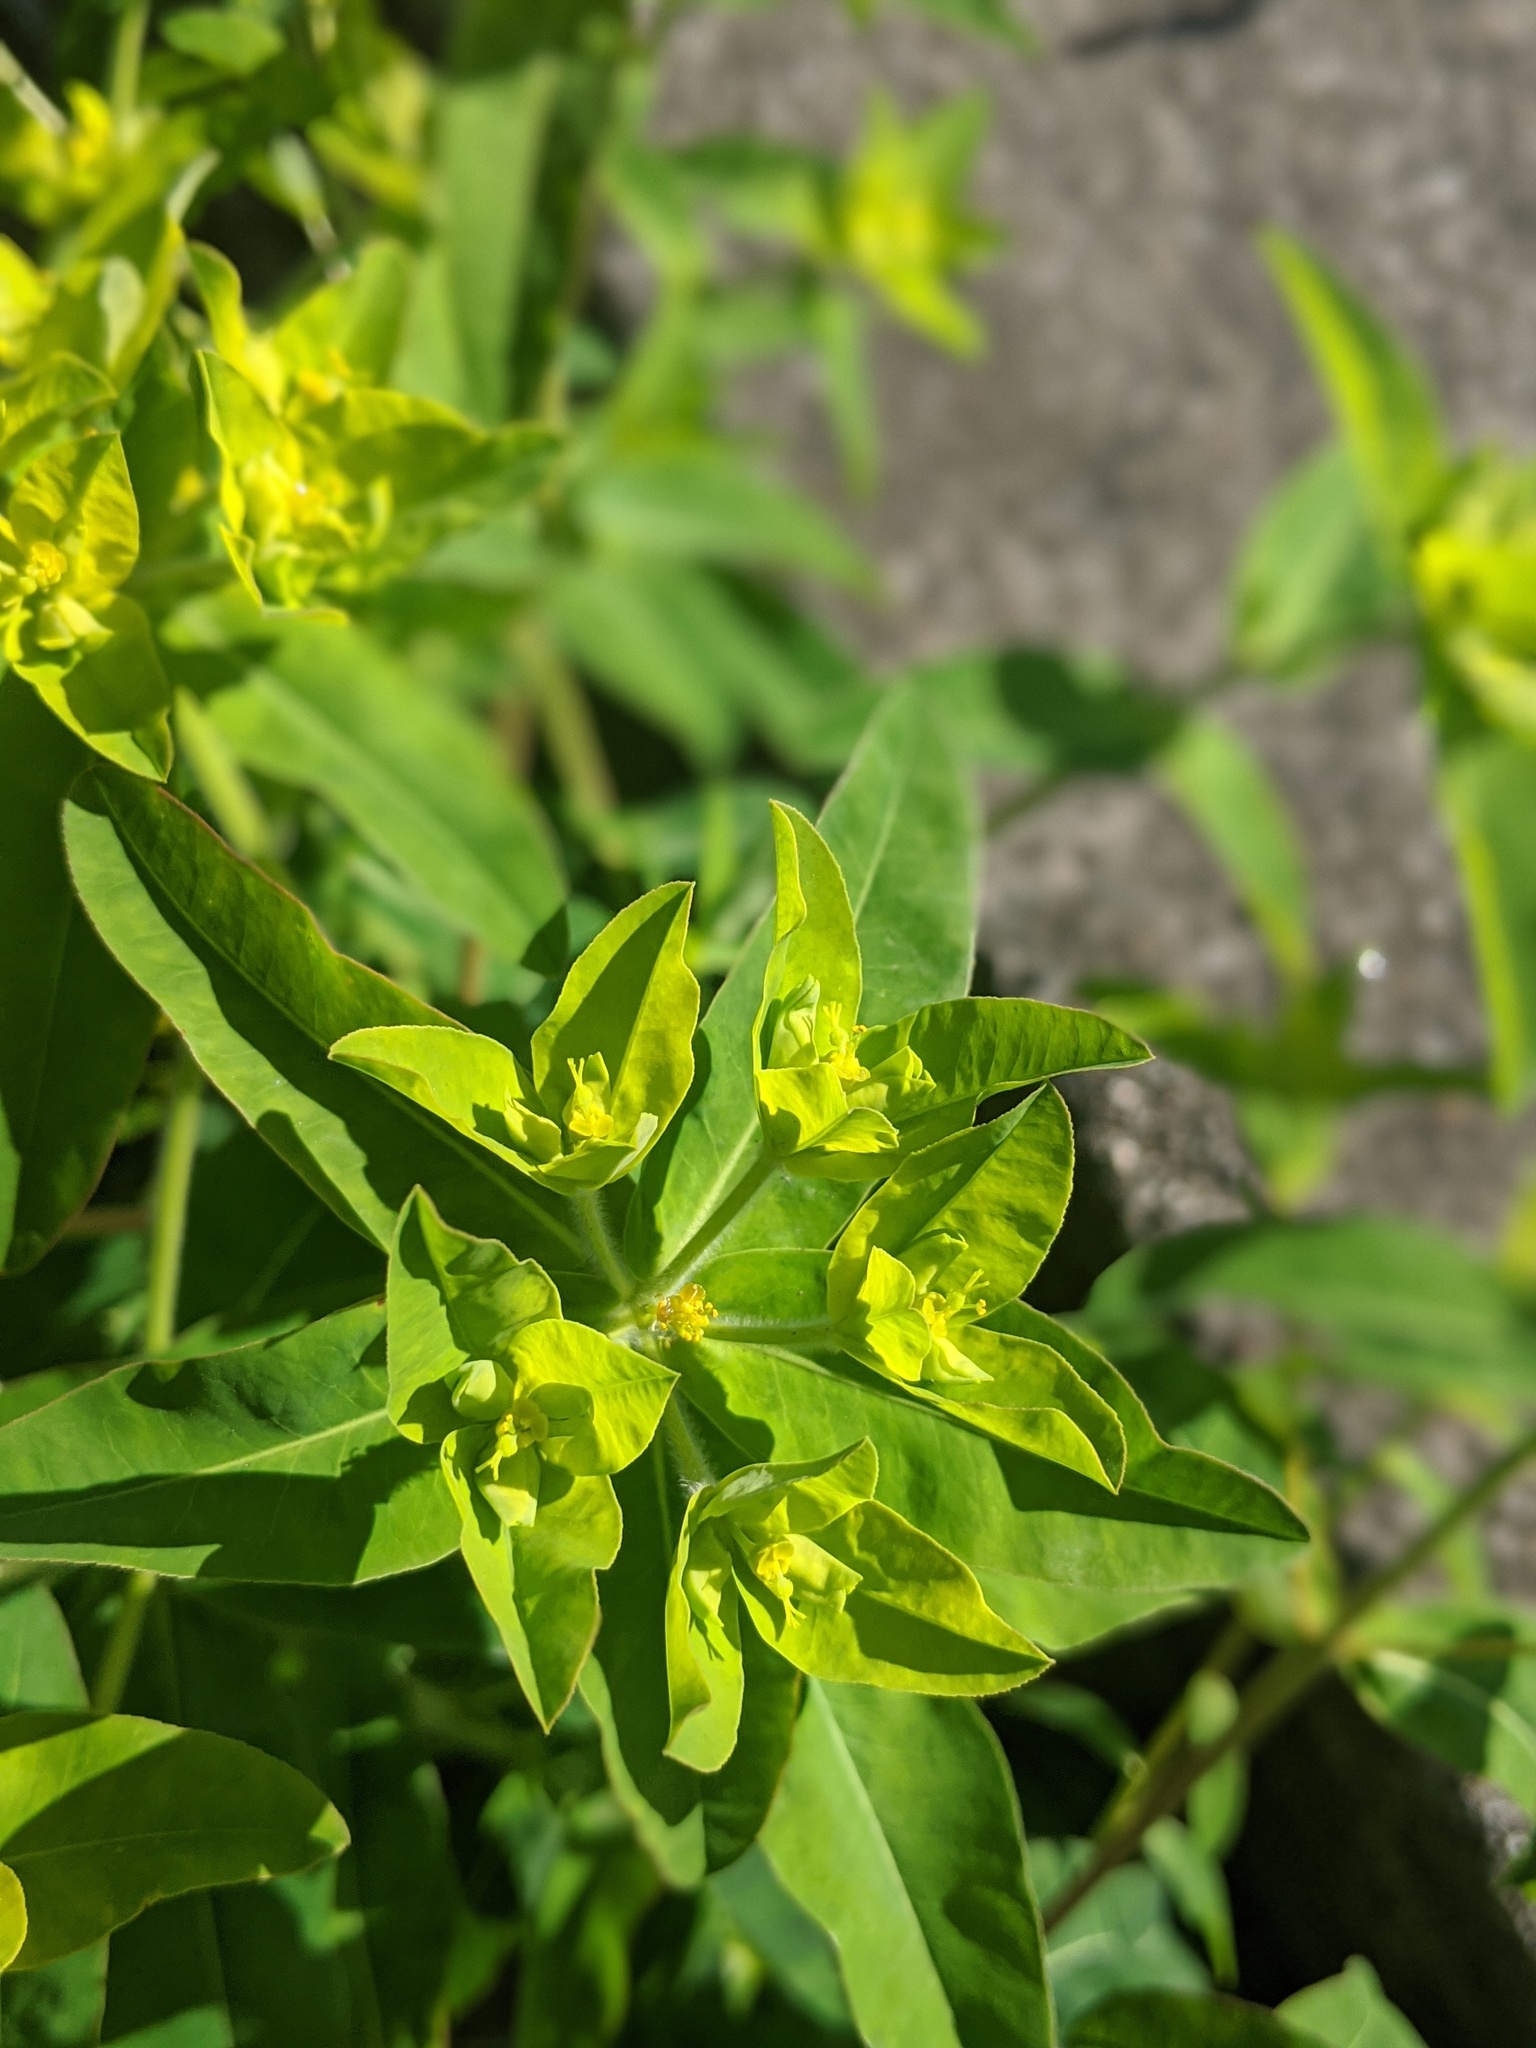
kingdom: Plantae
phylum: Tracheophyta
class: Magnoliopsida
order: Malpighiales
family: Euphorbiaceae
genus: Euphorbia
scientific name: Euphorbia oblongata
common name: Balkan spurge
